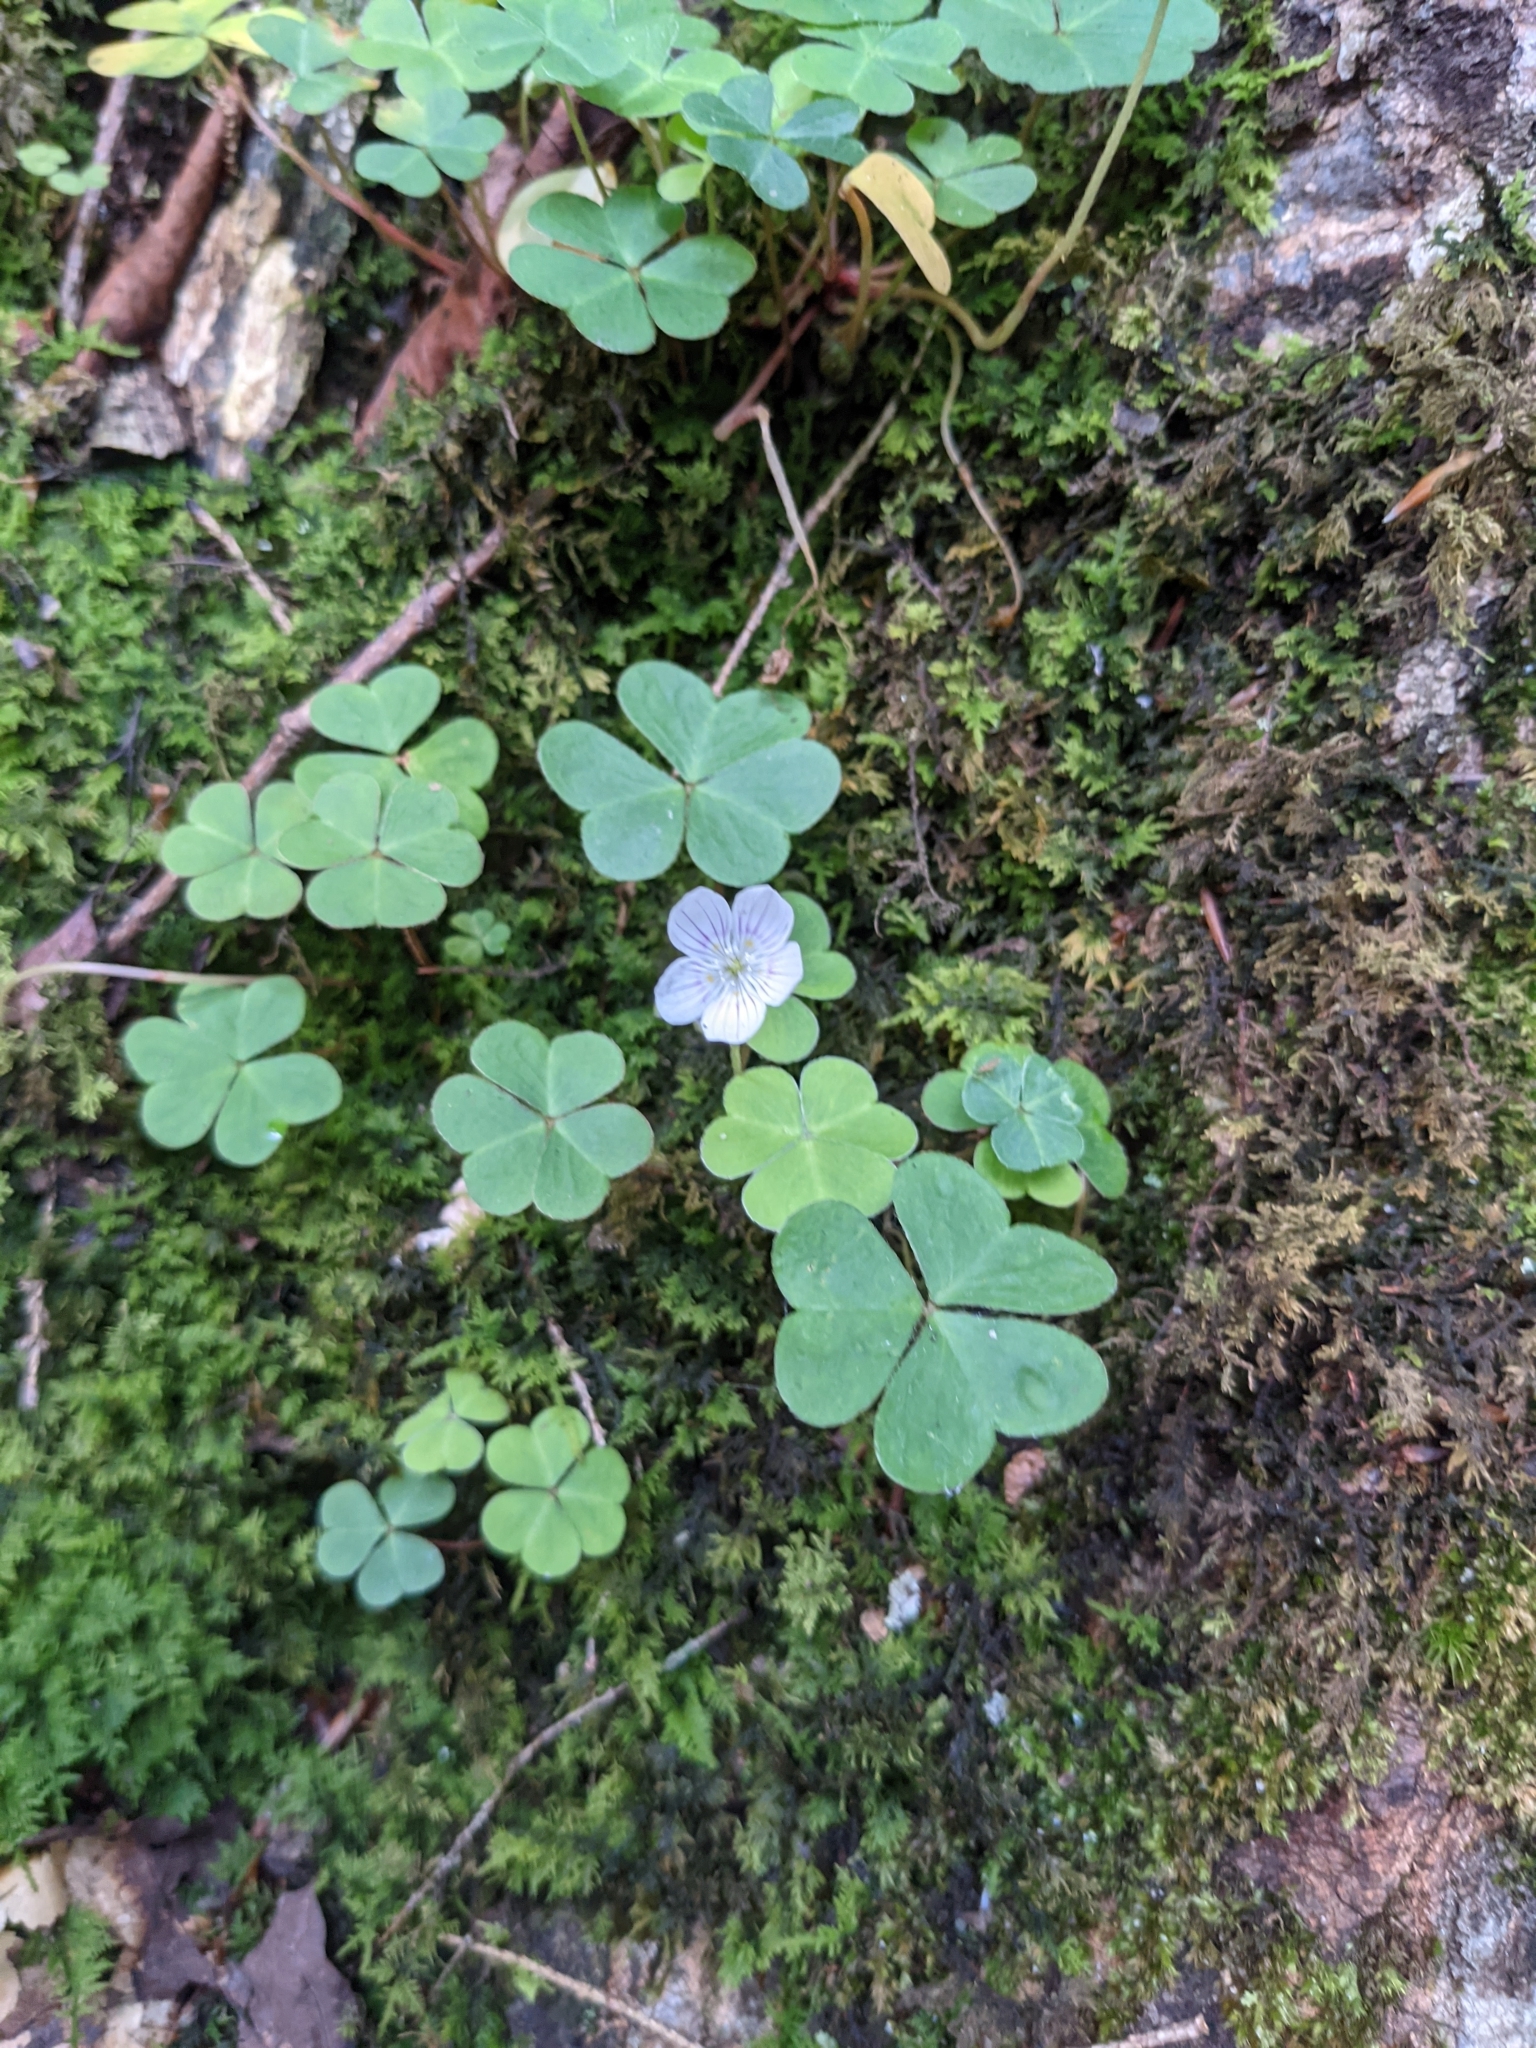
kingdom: Plantae
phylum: Tracheophyta
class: Magnoliopsida
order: Oxalidales
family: Oxalidaceae
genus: Oxalis
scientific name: Oxalis montana
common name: American wood-sorrel
